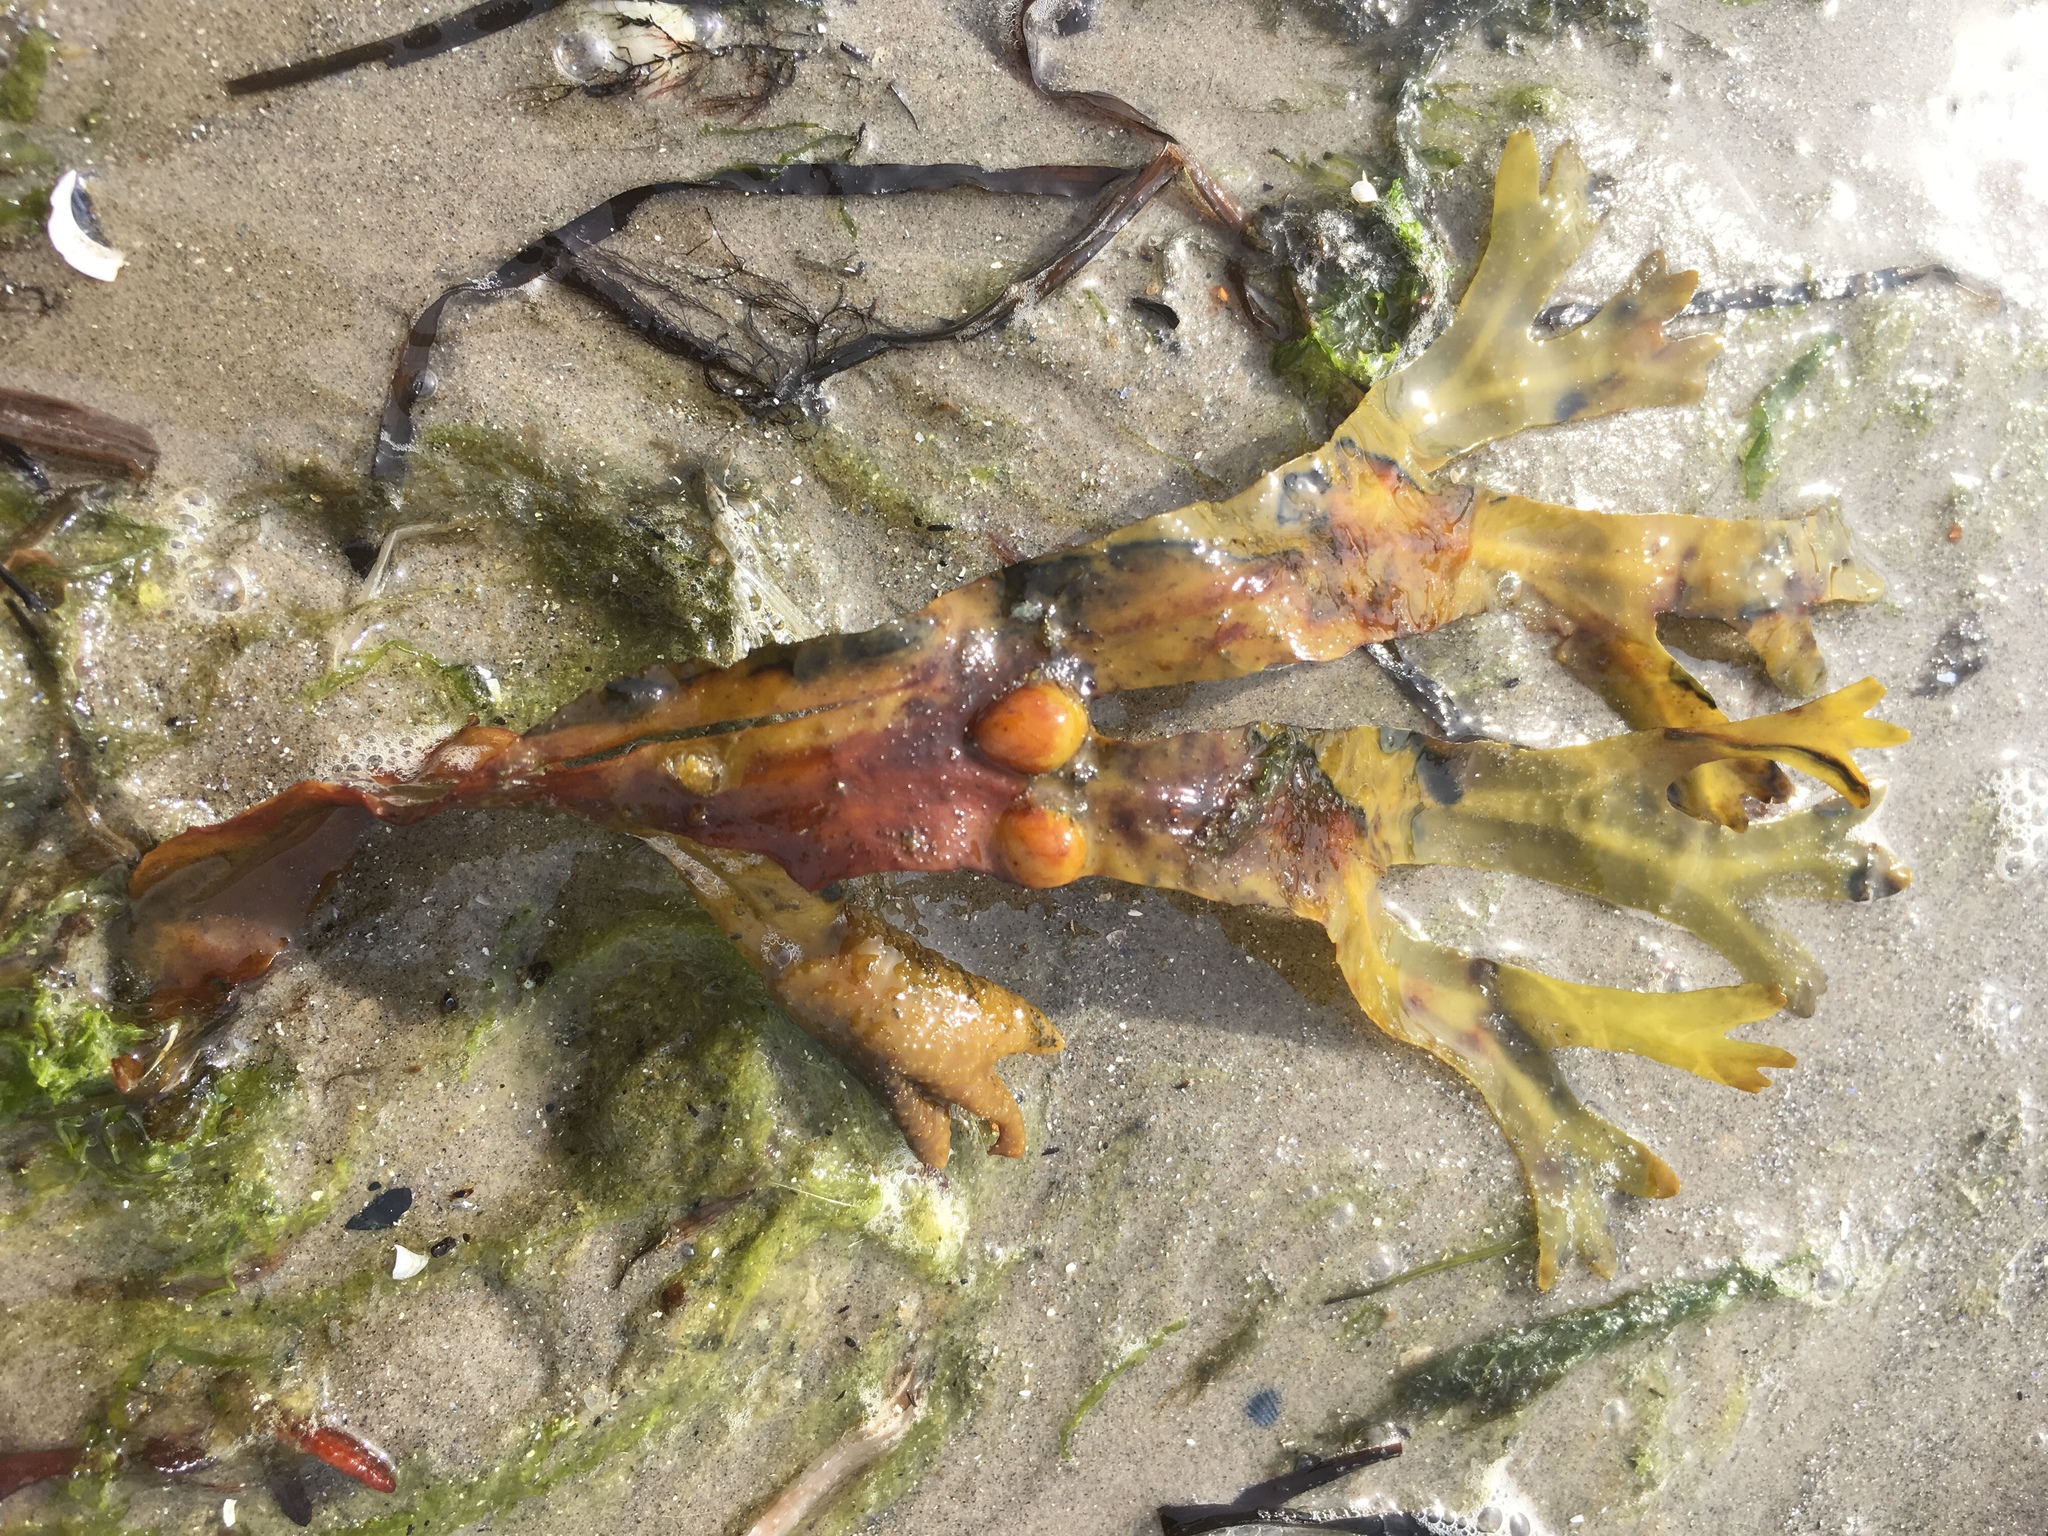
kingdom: Chromista
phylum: Ochrophyta
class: Phaeophyceae
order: Fucales
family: Fucaceae
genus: Fucus
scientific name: Fucus vesiculosus
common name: Bladder wrack
